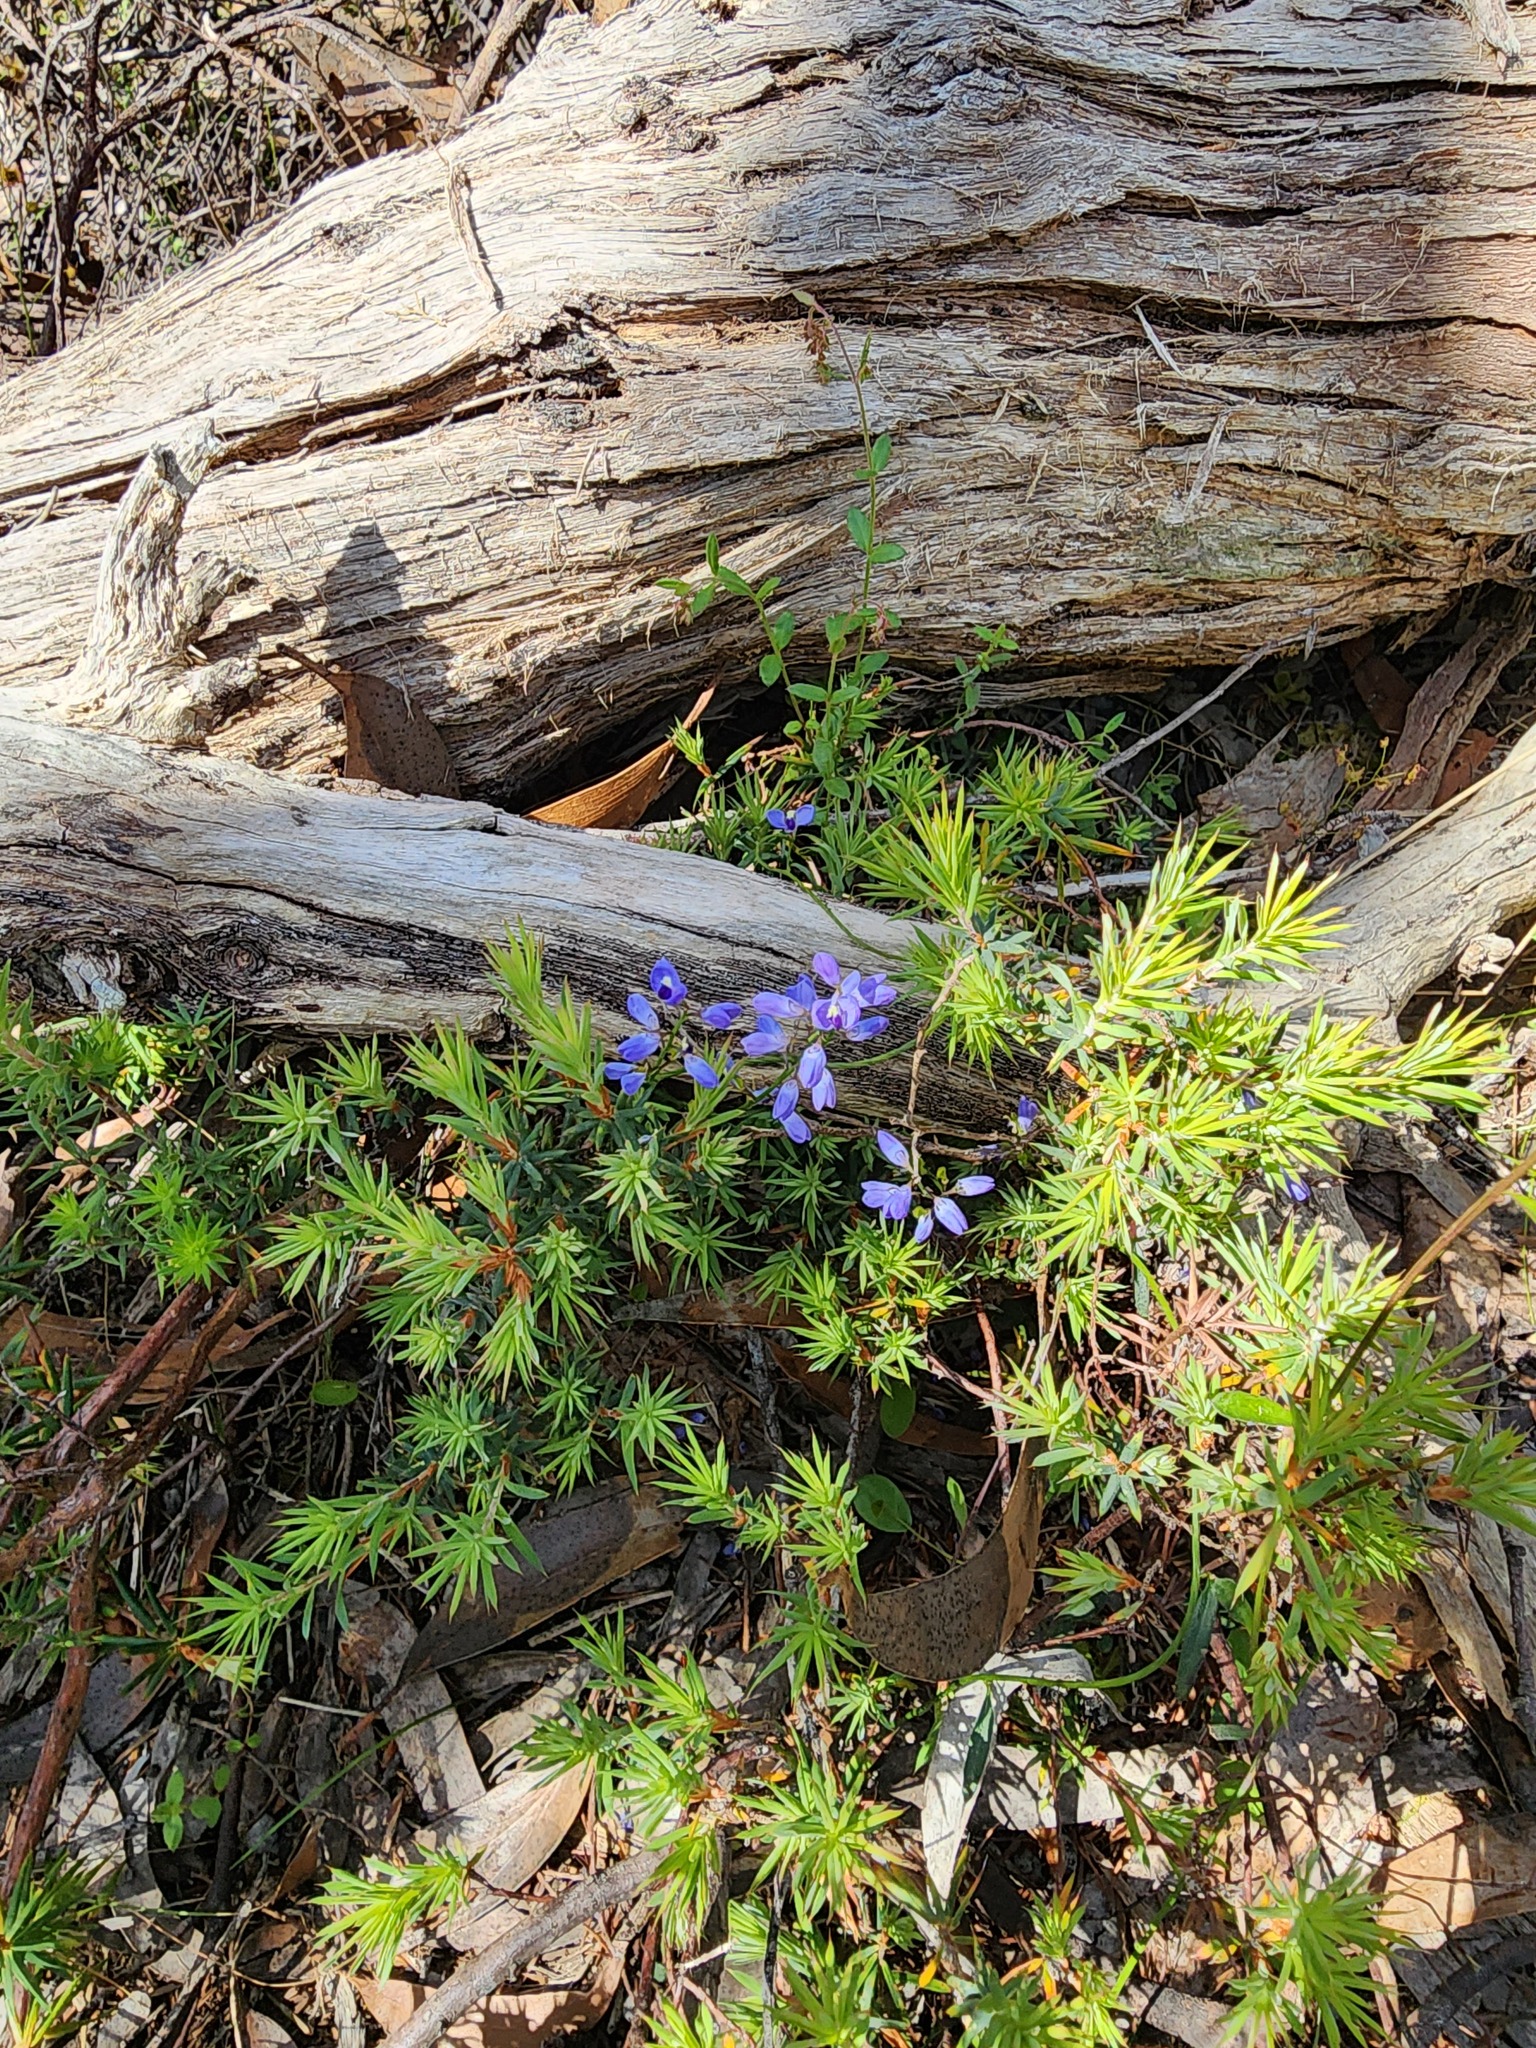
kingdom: Plantae
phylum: Tracheophyta
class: Magnoliopsida
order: Fabales
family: Polygalaceae
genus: Comesperma
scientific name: Comesperma volubile
